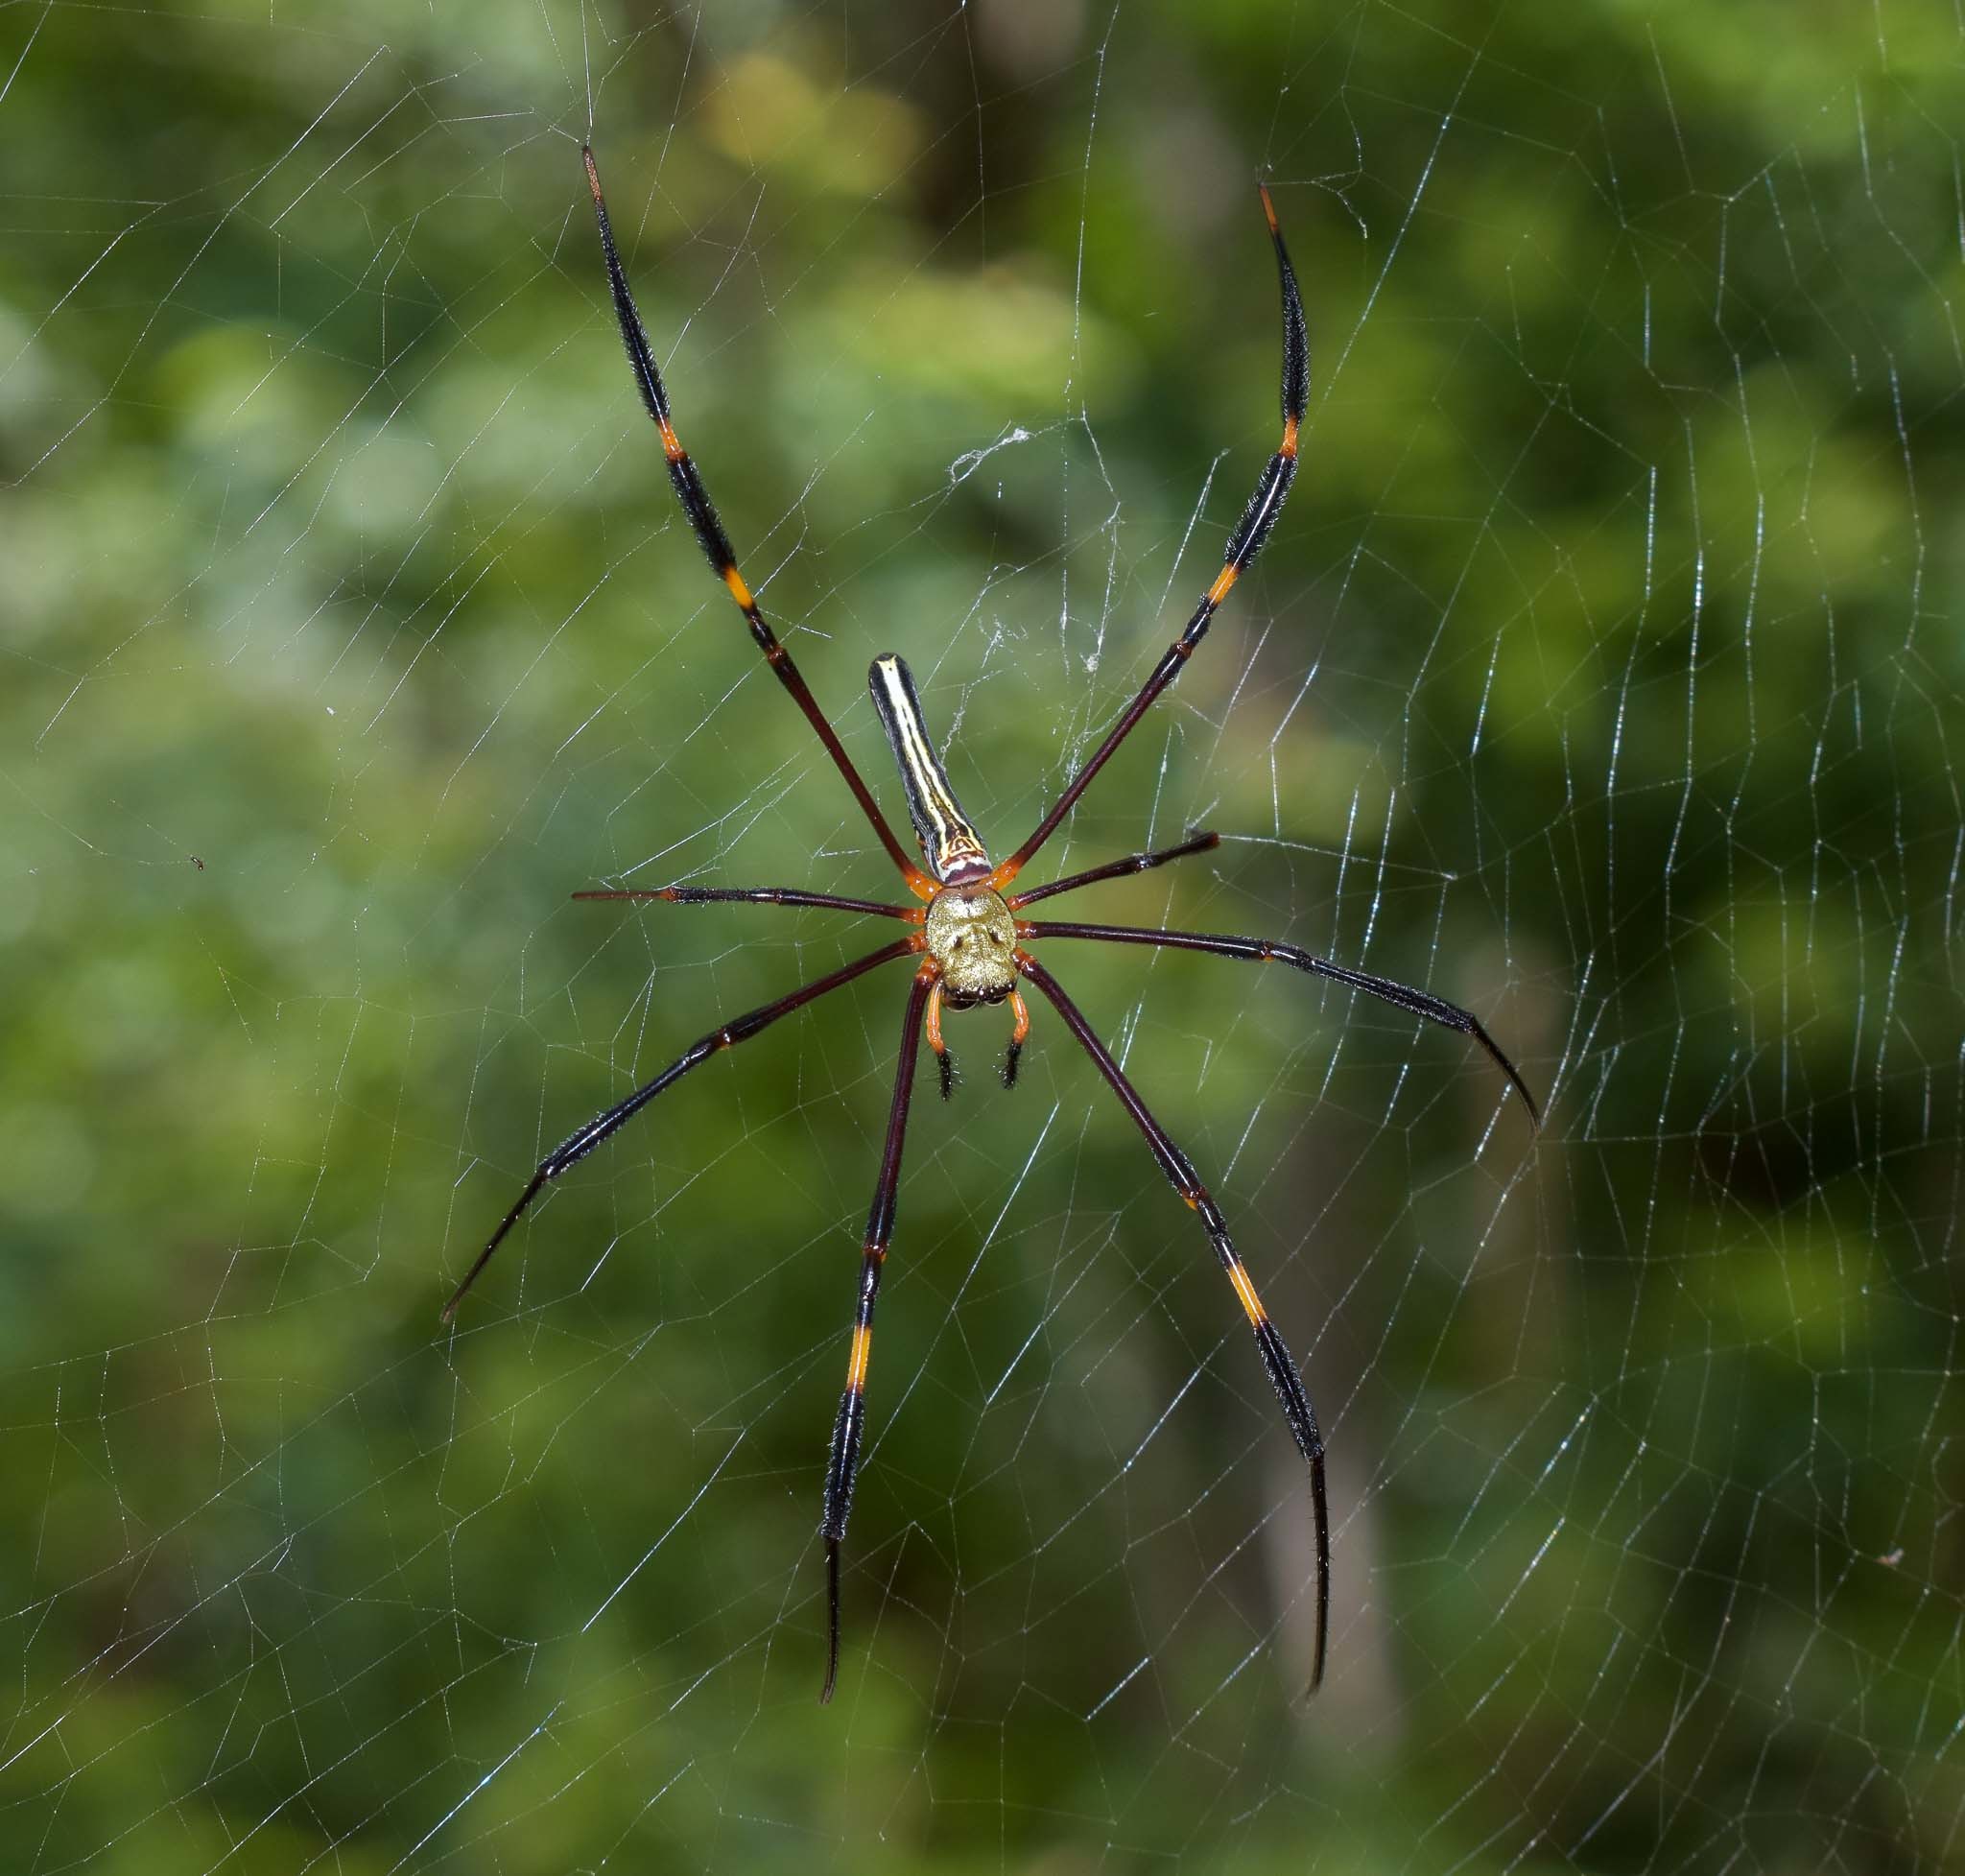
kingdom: Animalia
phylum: Arthropoda
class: Arachnida
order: Araneae
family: Araneidae
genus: Nephila
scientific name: Nephila pilipes
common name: Giant golden orb weaver
